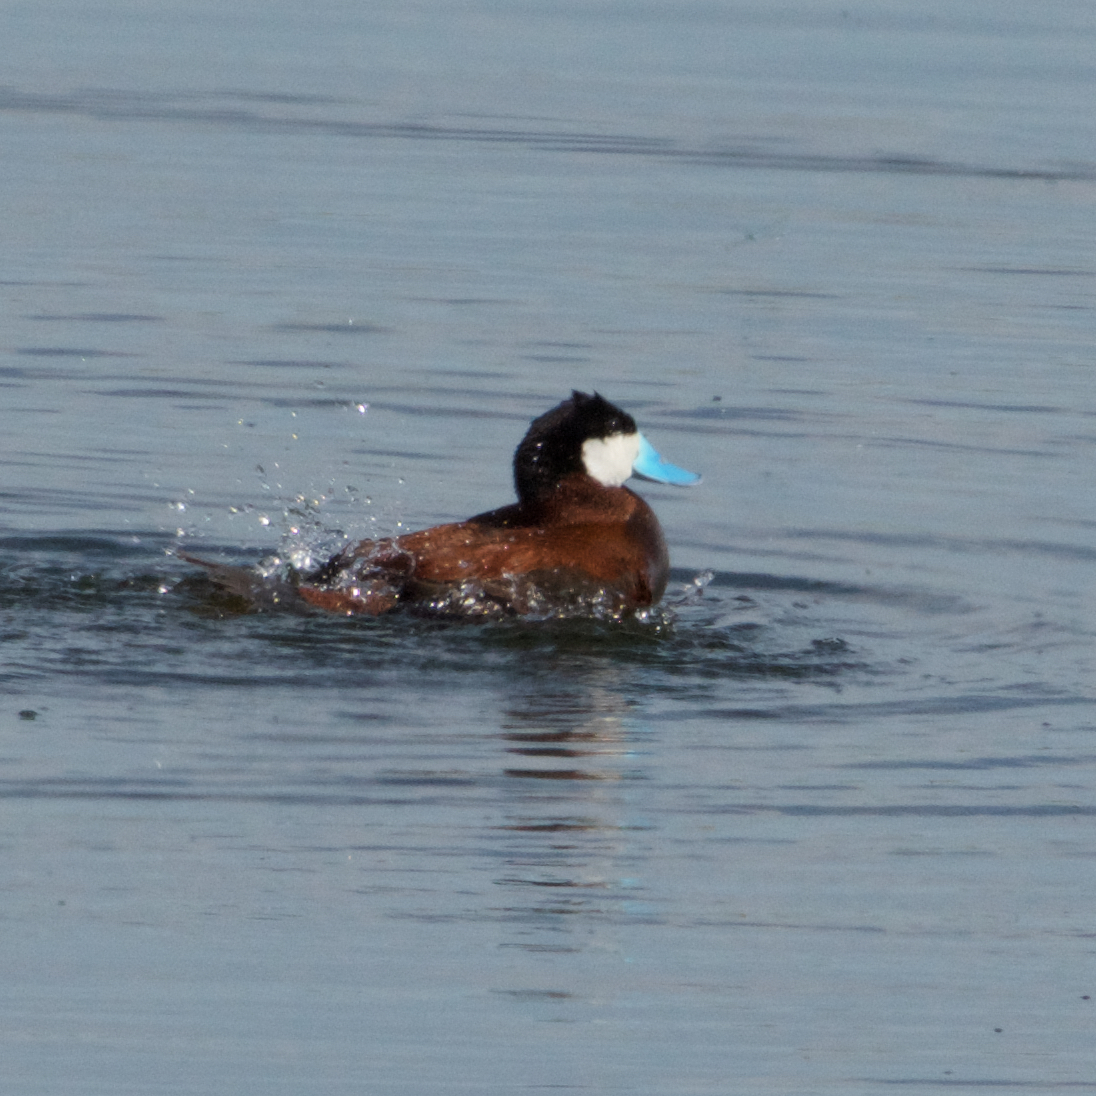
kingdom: Animalia
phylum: Chordata
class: Aves
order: Anseriformes
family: Anatidae
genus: Oxyura
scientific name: Oxyura jamaicensis
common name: Ruddy duck
